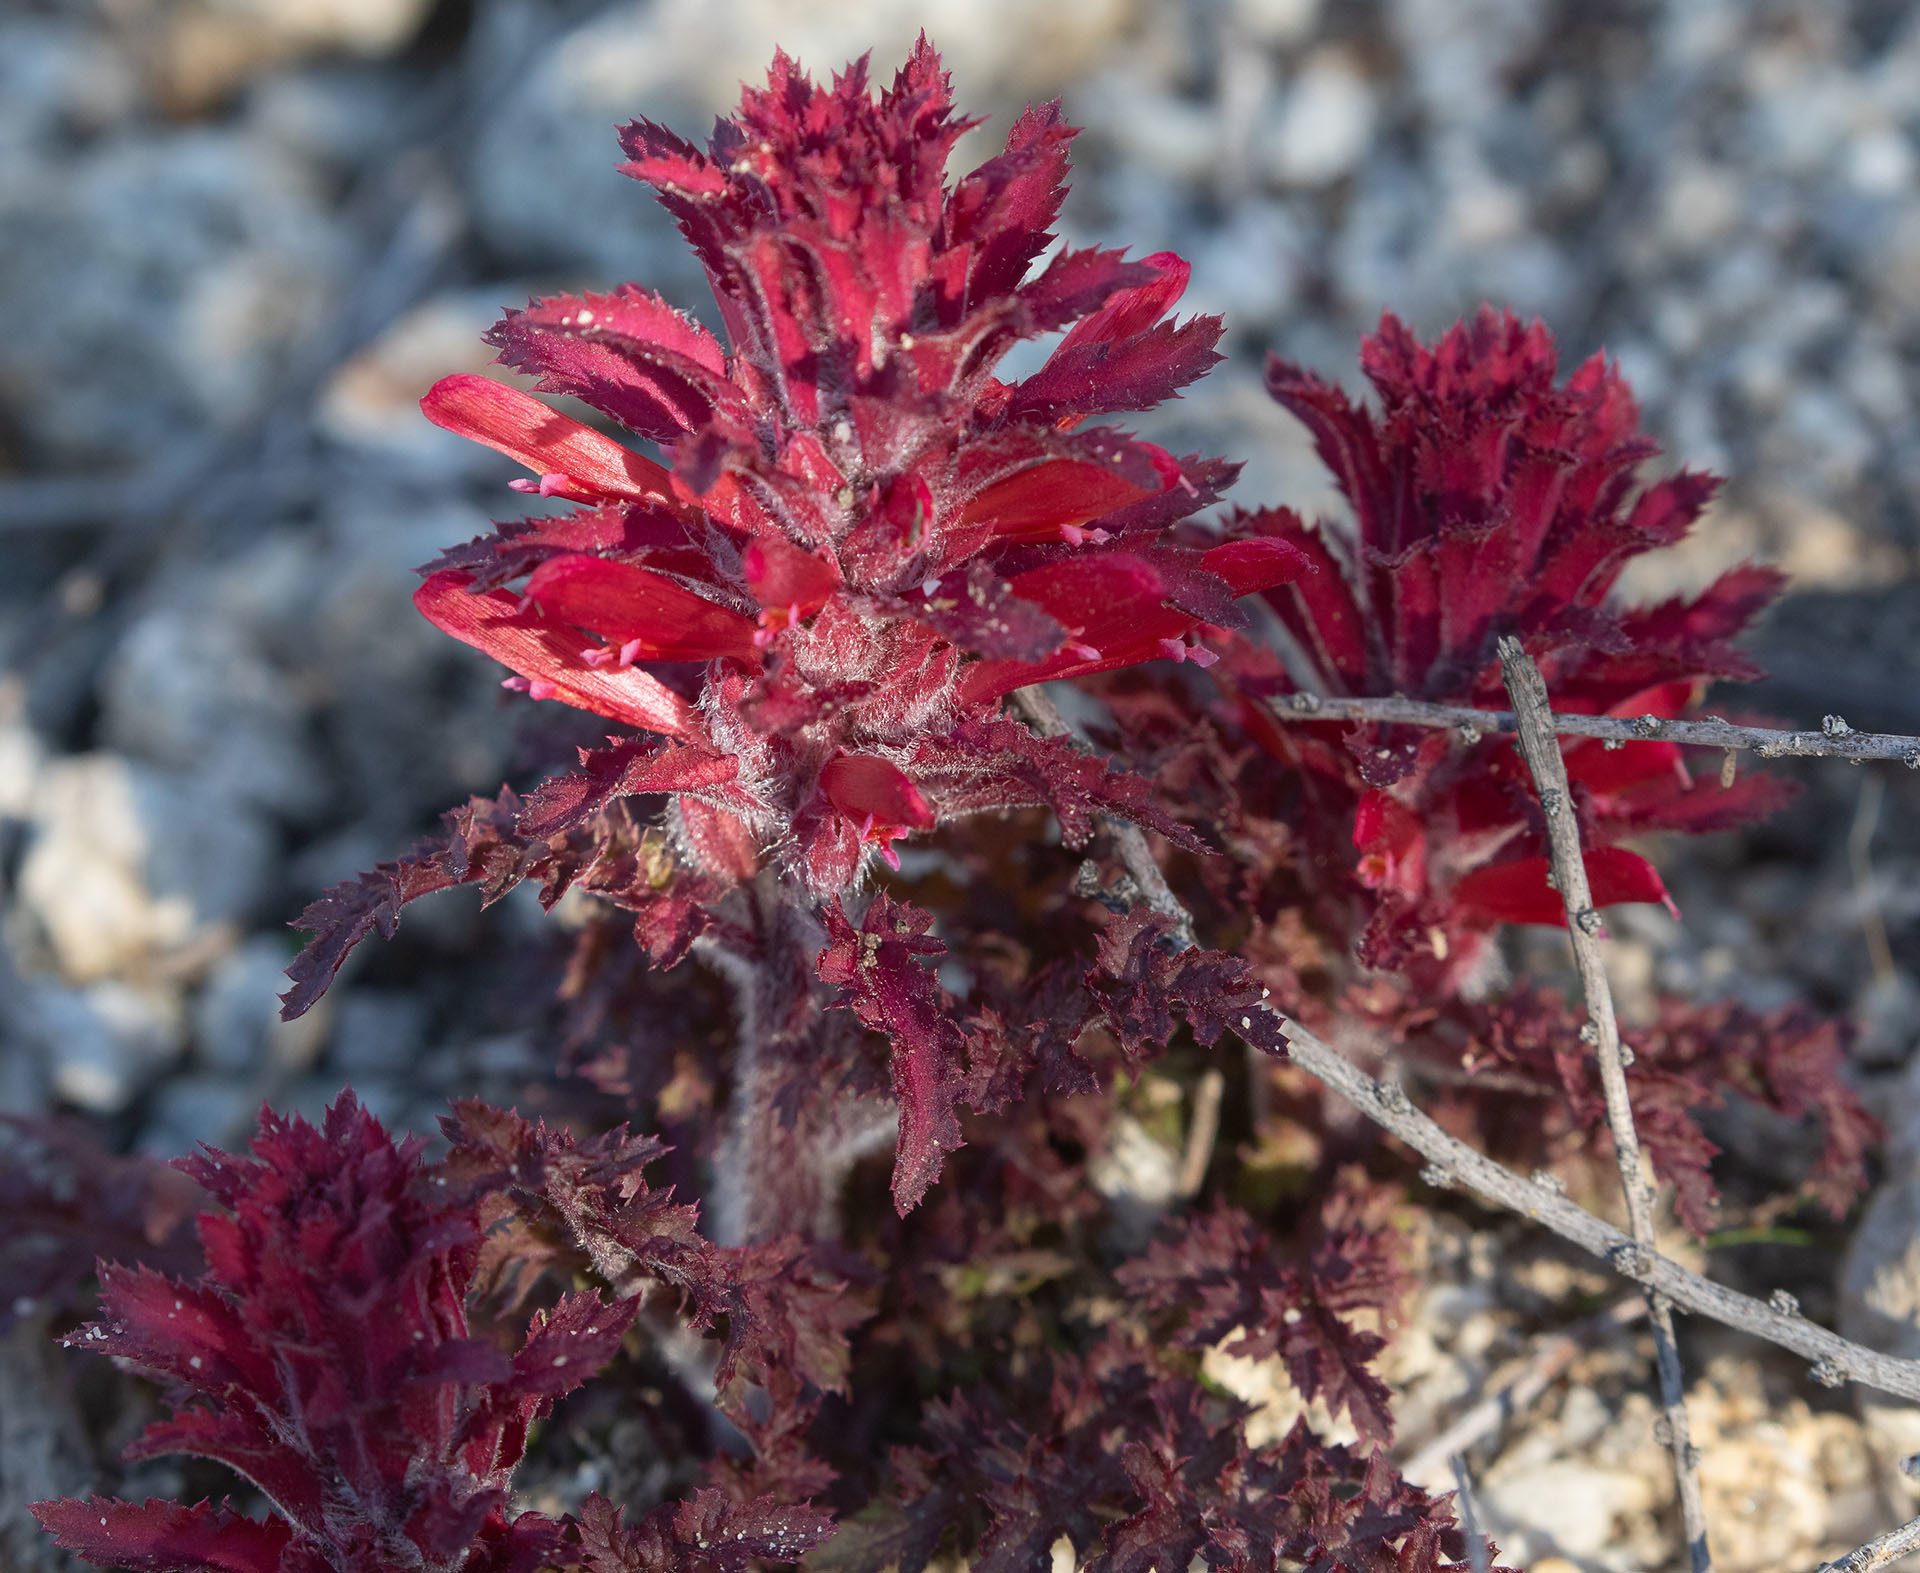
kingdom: Plantae
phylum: Tracheophyta
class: Magnoliopsida
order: Lamiales
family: Orobanchaceae
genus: Pedicularis
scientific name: Pedicularis densiflora
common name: Indian warrior
